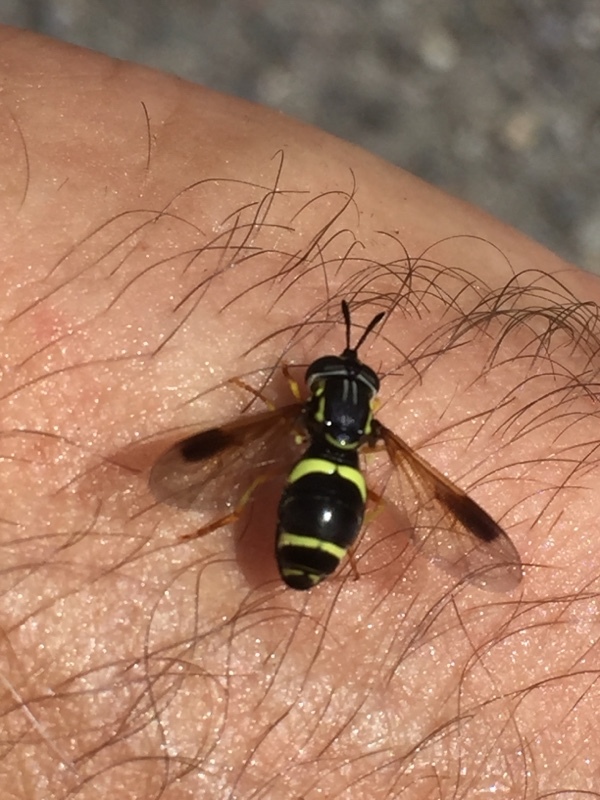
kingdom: Animalia
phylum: Arthropoda
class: Insecta
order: Diptera
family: Syrphidae
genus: Chrysotoxum
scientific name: Chrysotoxum bicincta
